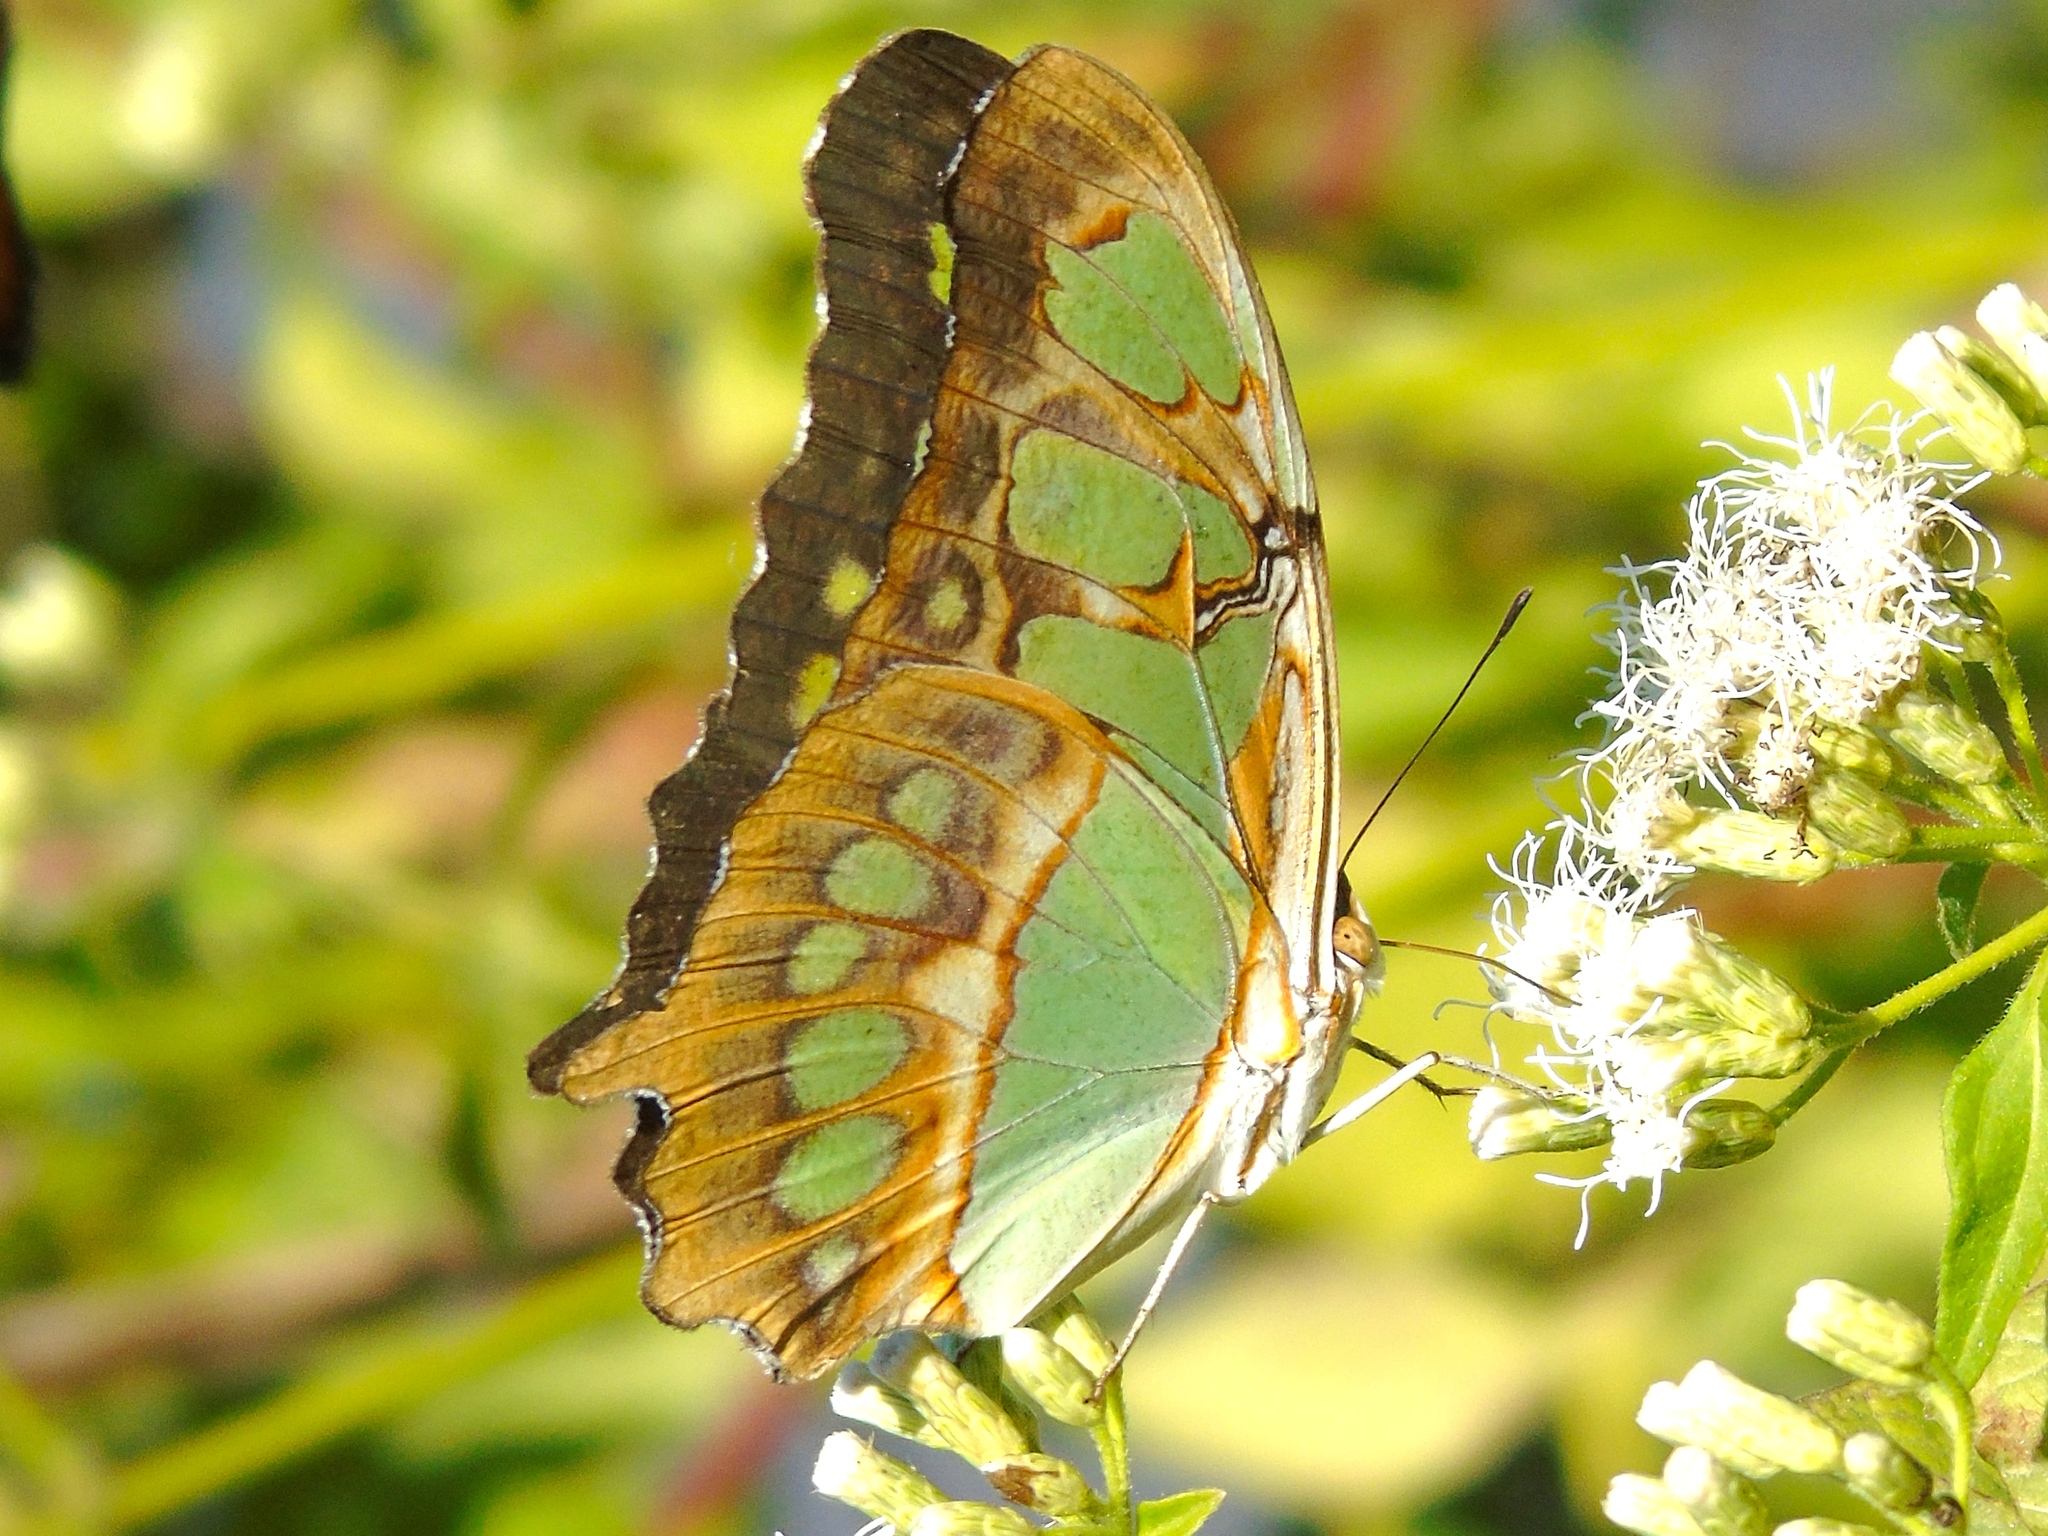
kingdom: Animalia
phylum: Arthropoda
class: Insecta
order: Lepidoptera
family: Nymphalidae
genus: Siproeta
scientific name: Siproeta stelenes
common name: Malachite
